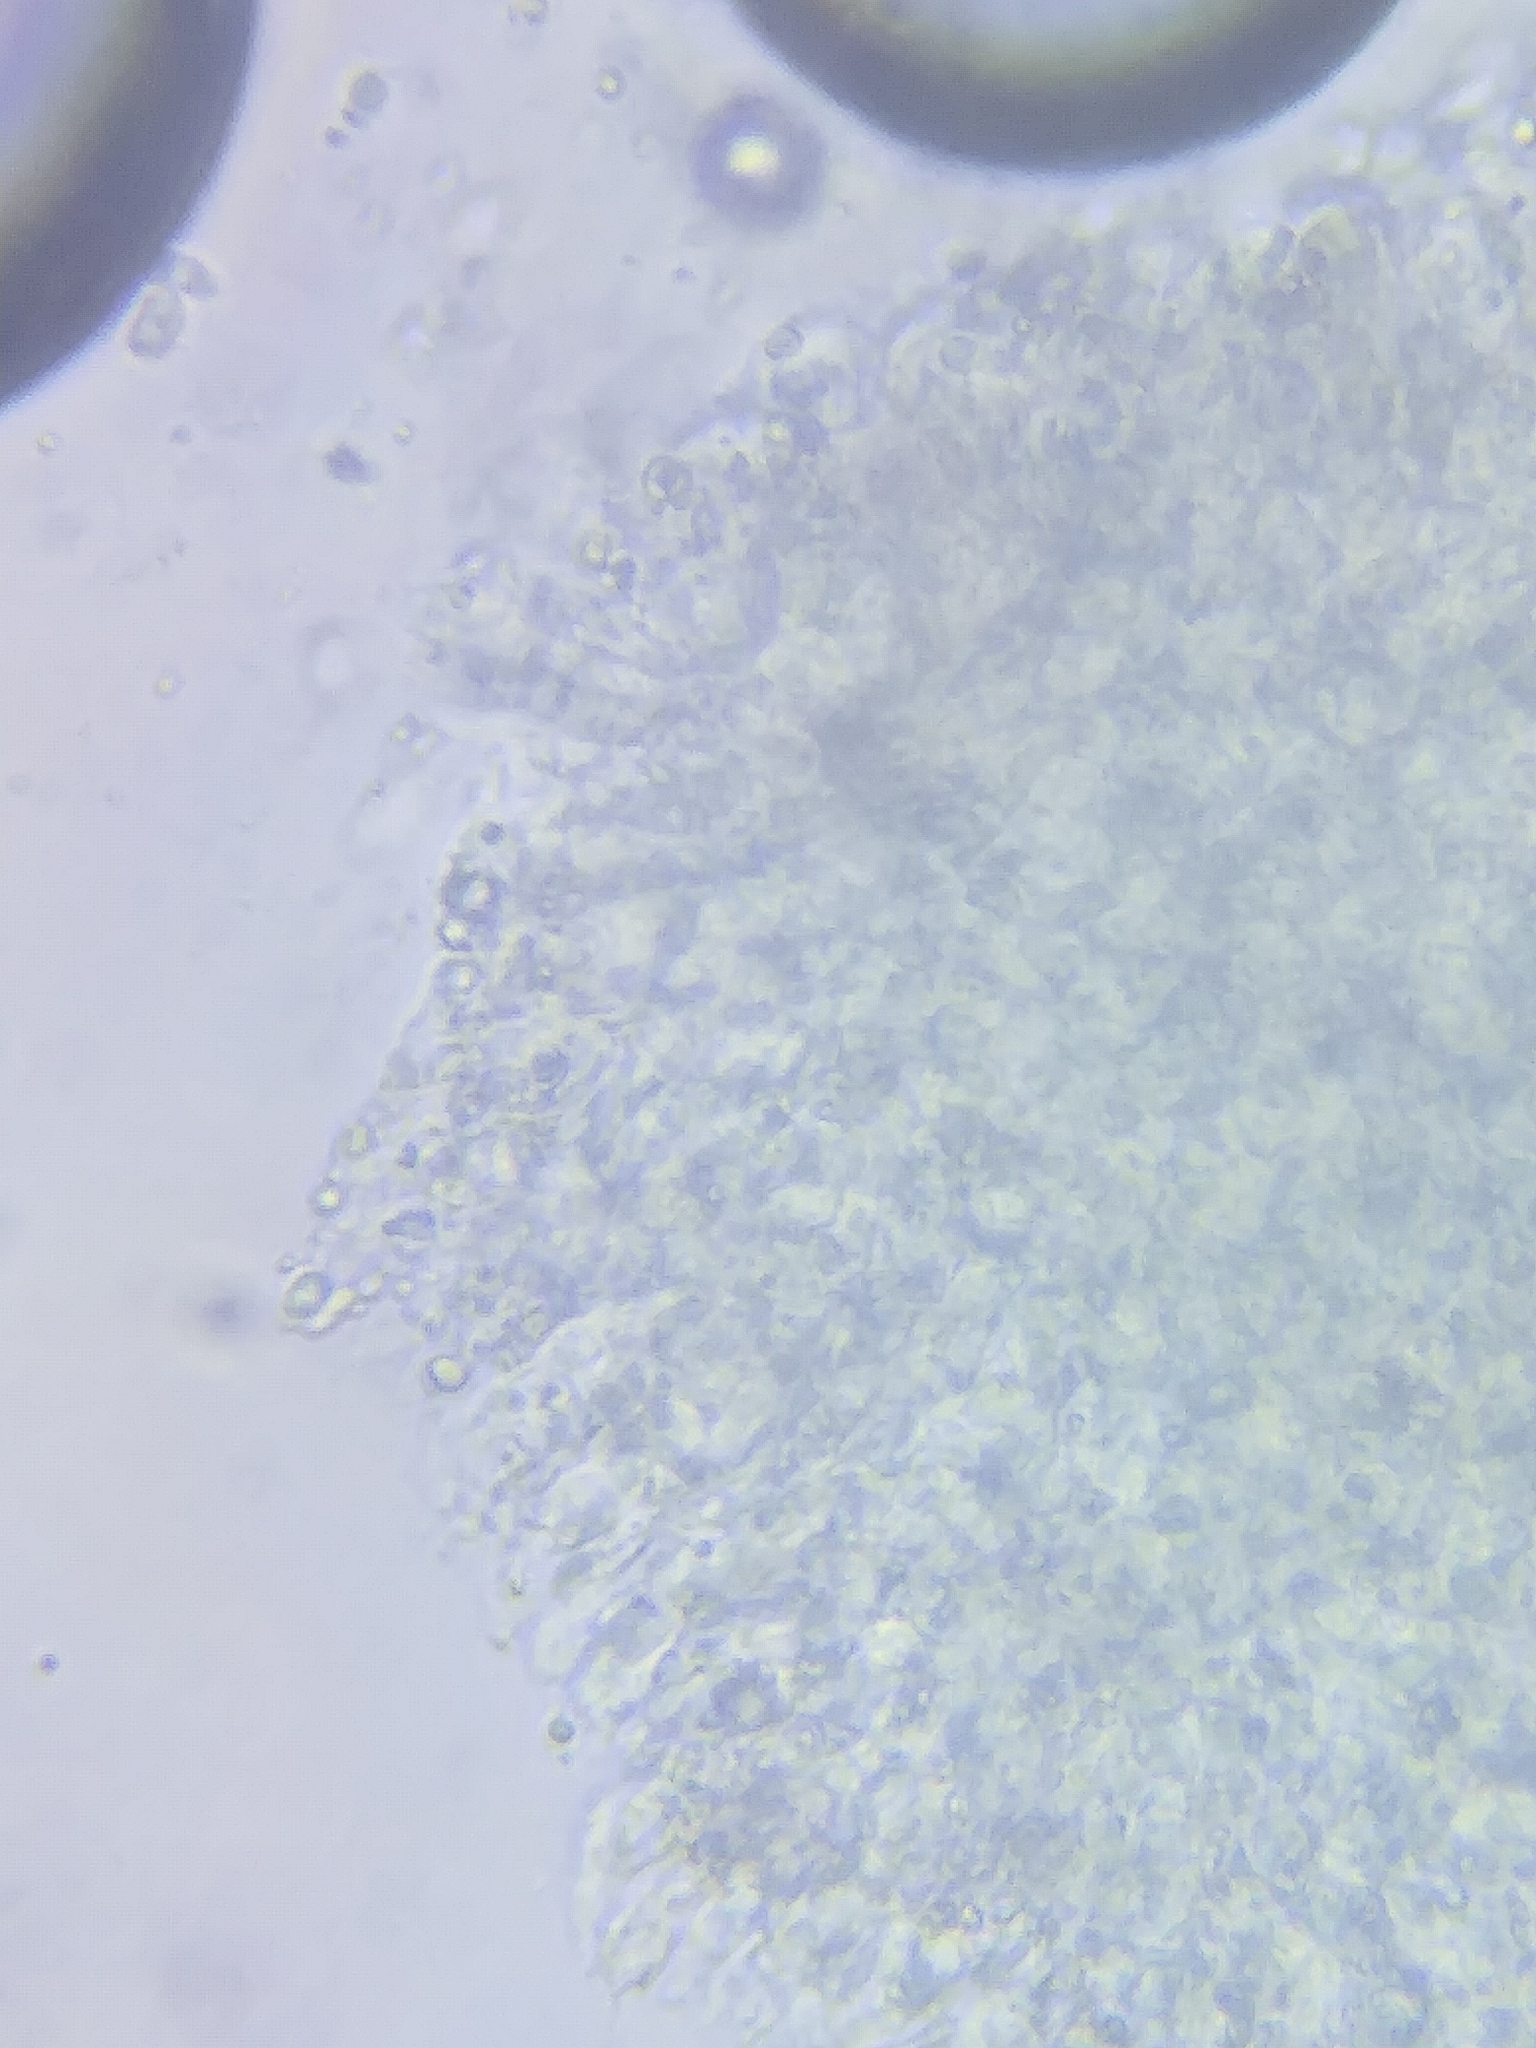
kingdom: Fungi
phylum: Basidiomycota
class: Agaricomycetes
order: Agaricales
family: Tricholomataceae
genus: Leucocybe
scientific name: Leucocybe candicans
